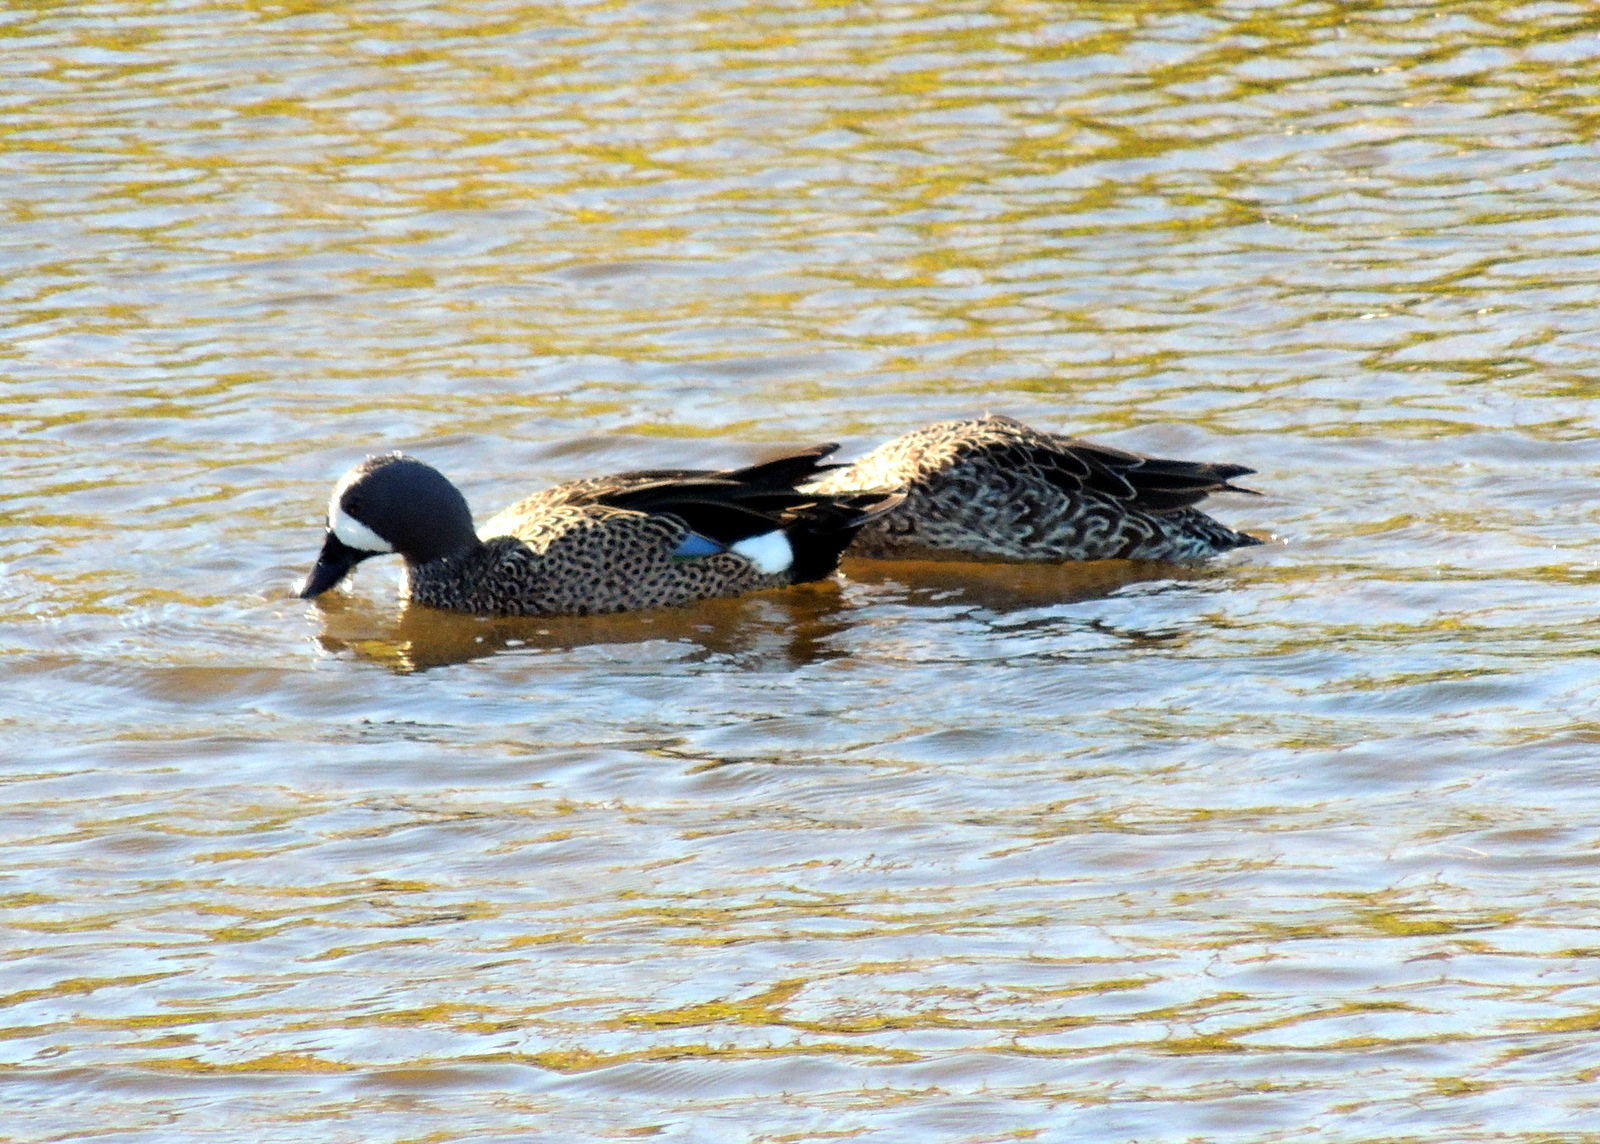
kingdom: Animalia
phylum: Chordata
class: Aves
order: Anseriformes
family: Anatidae
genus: Spatula
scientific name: Spatula discors
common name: Blue-winged teal
